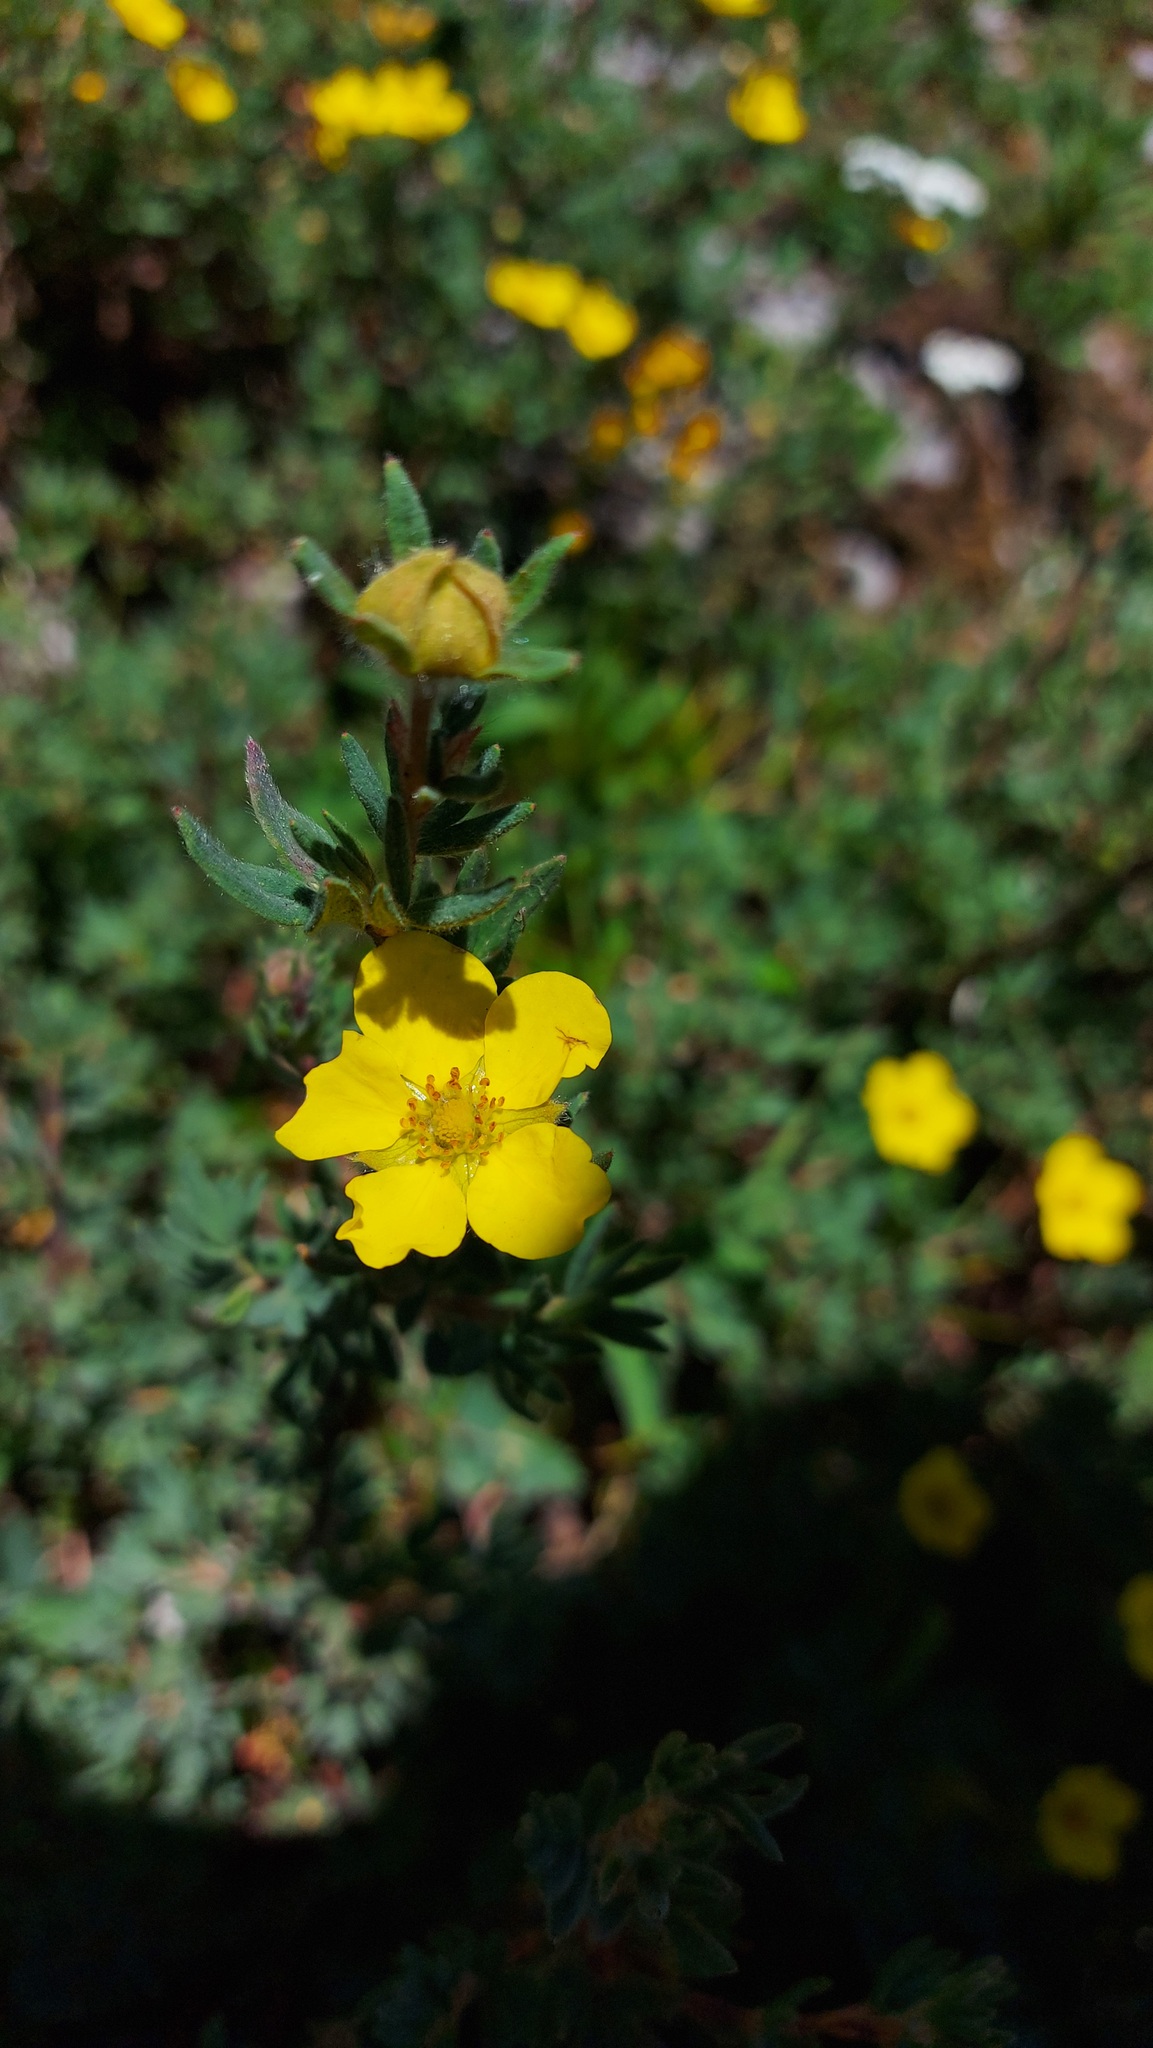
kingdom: Plantae
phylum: Tracheophyta
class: Magnoliopsida
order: Rosales
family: Rosaceae
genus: Dasiphora
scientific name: Dasiphora fruticosa
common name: Shrubby cinquefoil
